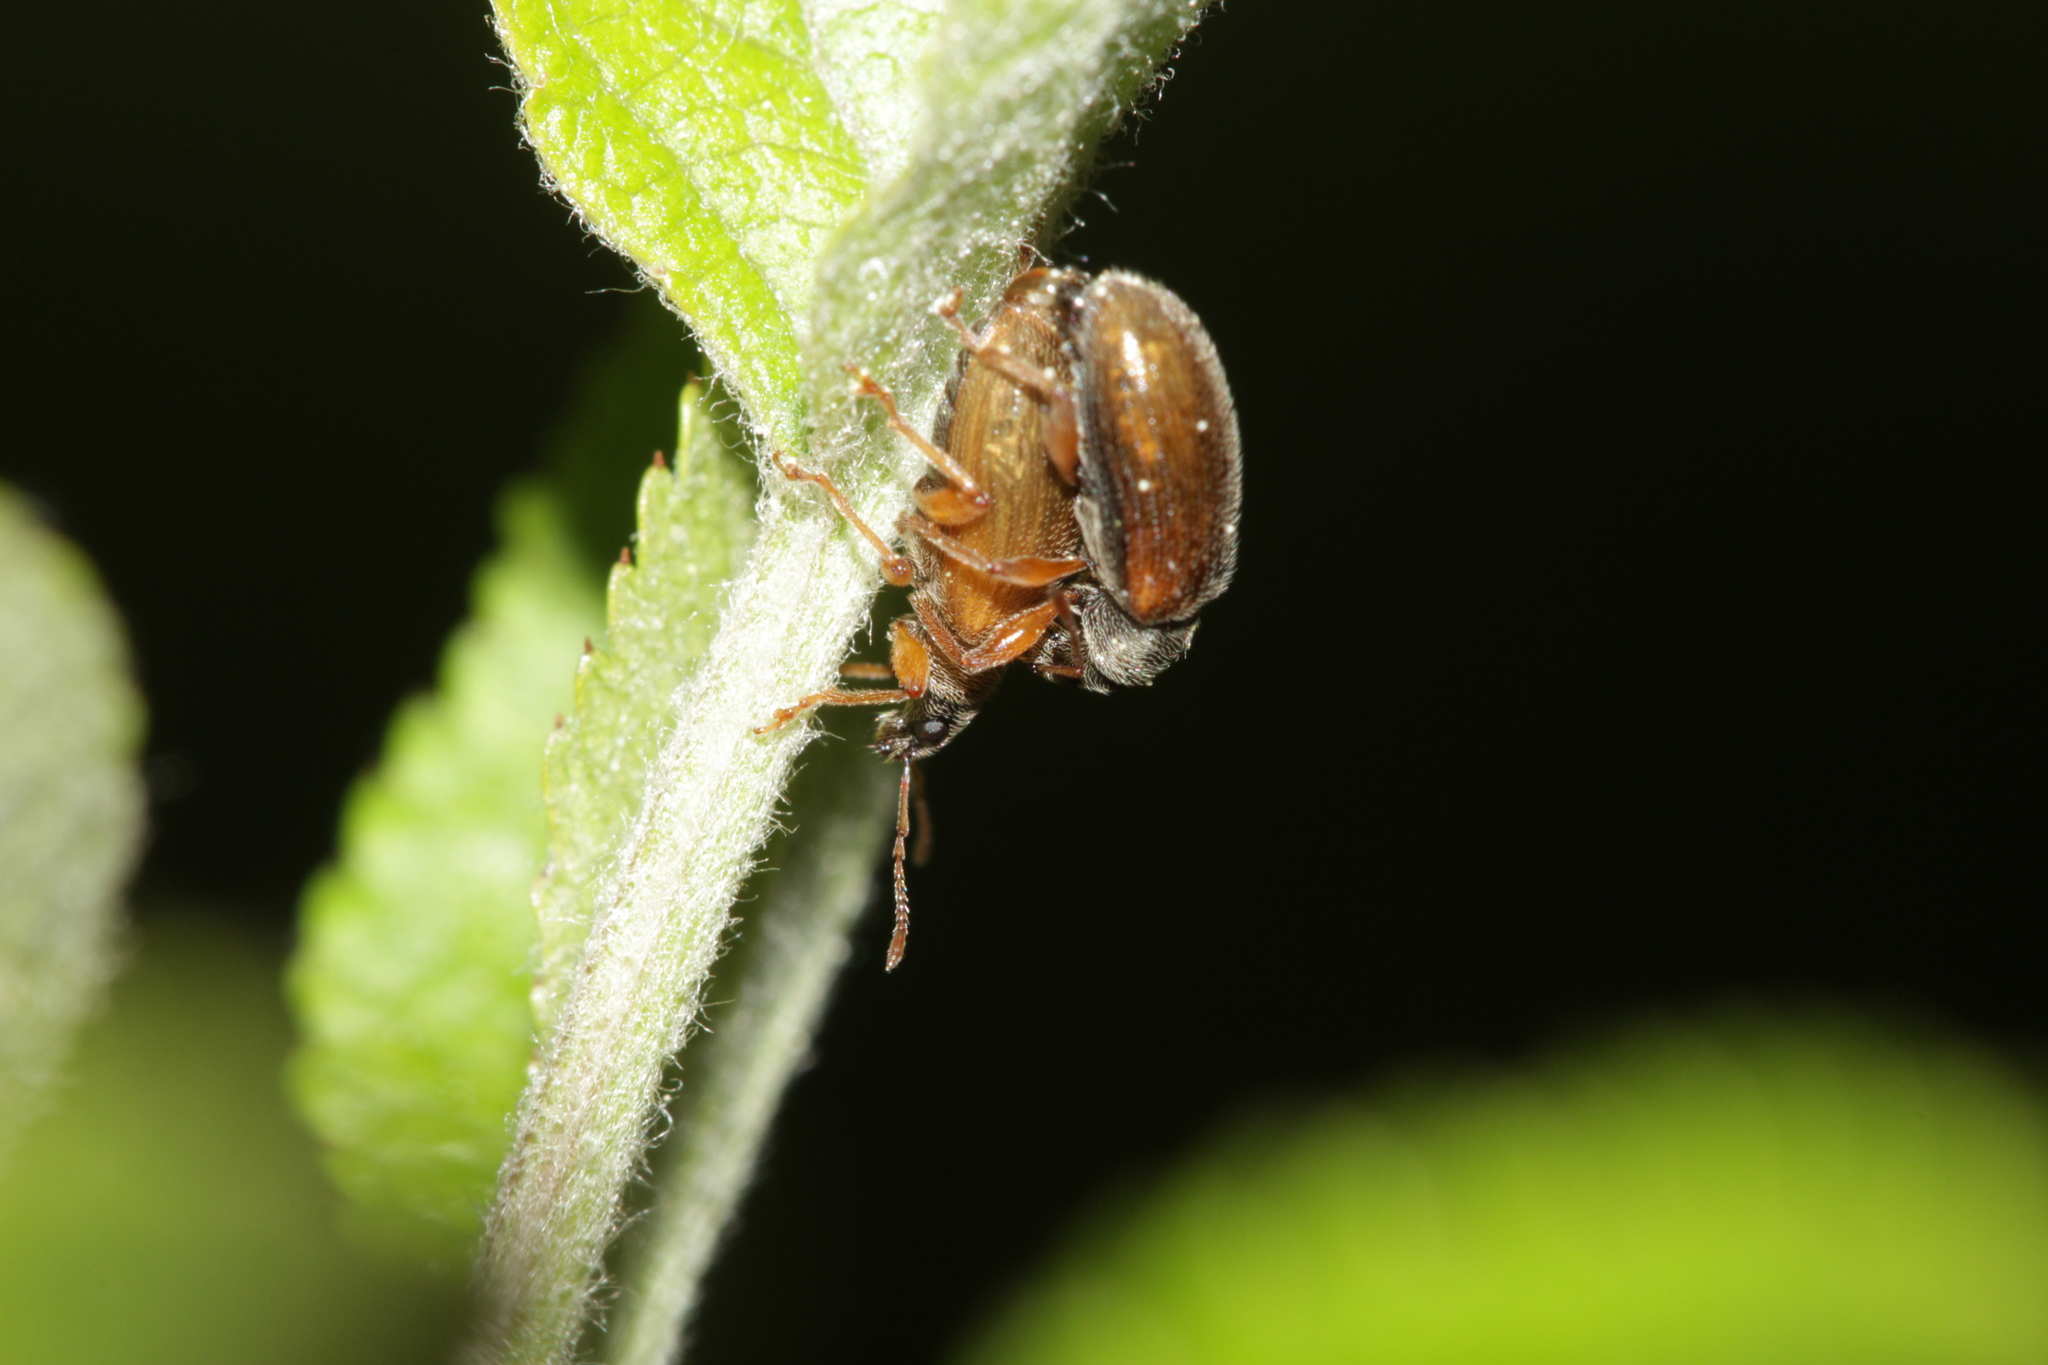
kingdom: Animalia
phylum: Arthropoda
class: Insecta
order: Coleoptera
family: Curculionidae
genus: Phyllobius
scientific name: Phyllobius oblongus
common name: Brown leaf weevil
